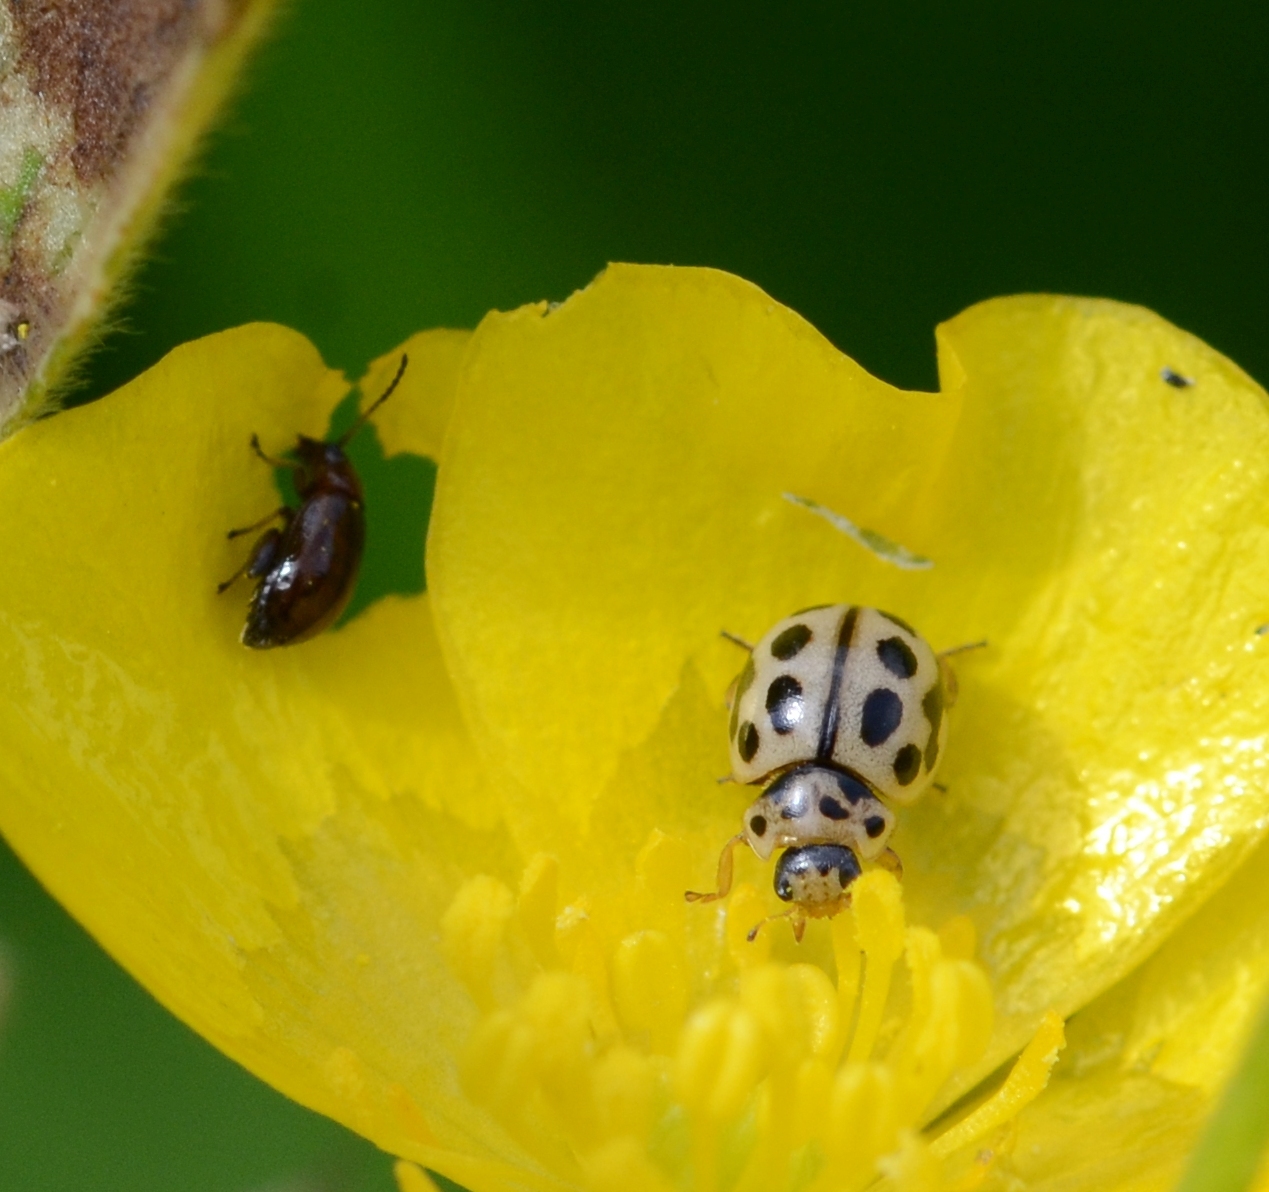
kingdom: Animalia
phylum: Arthropoda
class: Insecta
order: Coleoptera
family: Coccinellidae
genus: Tytthaspis
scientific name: Tytthaspis sedecimpunctata
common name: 16-spot ladybird
